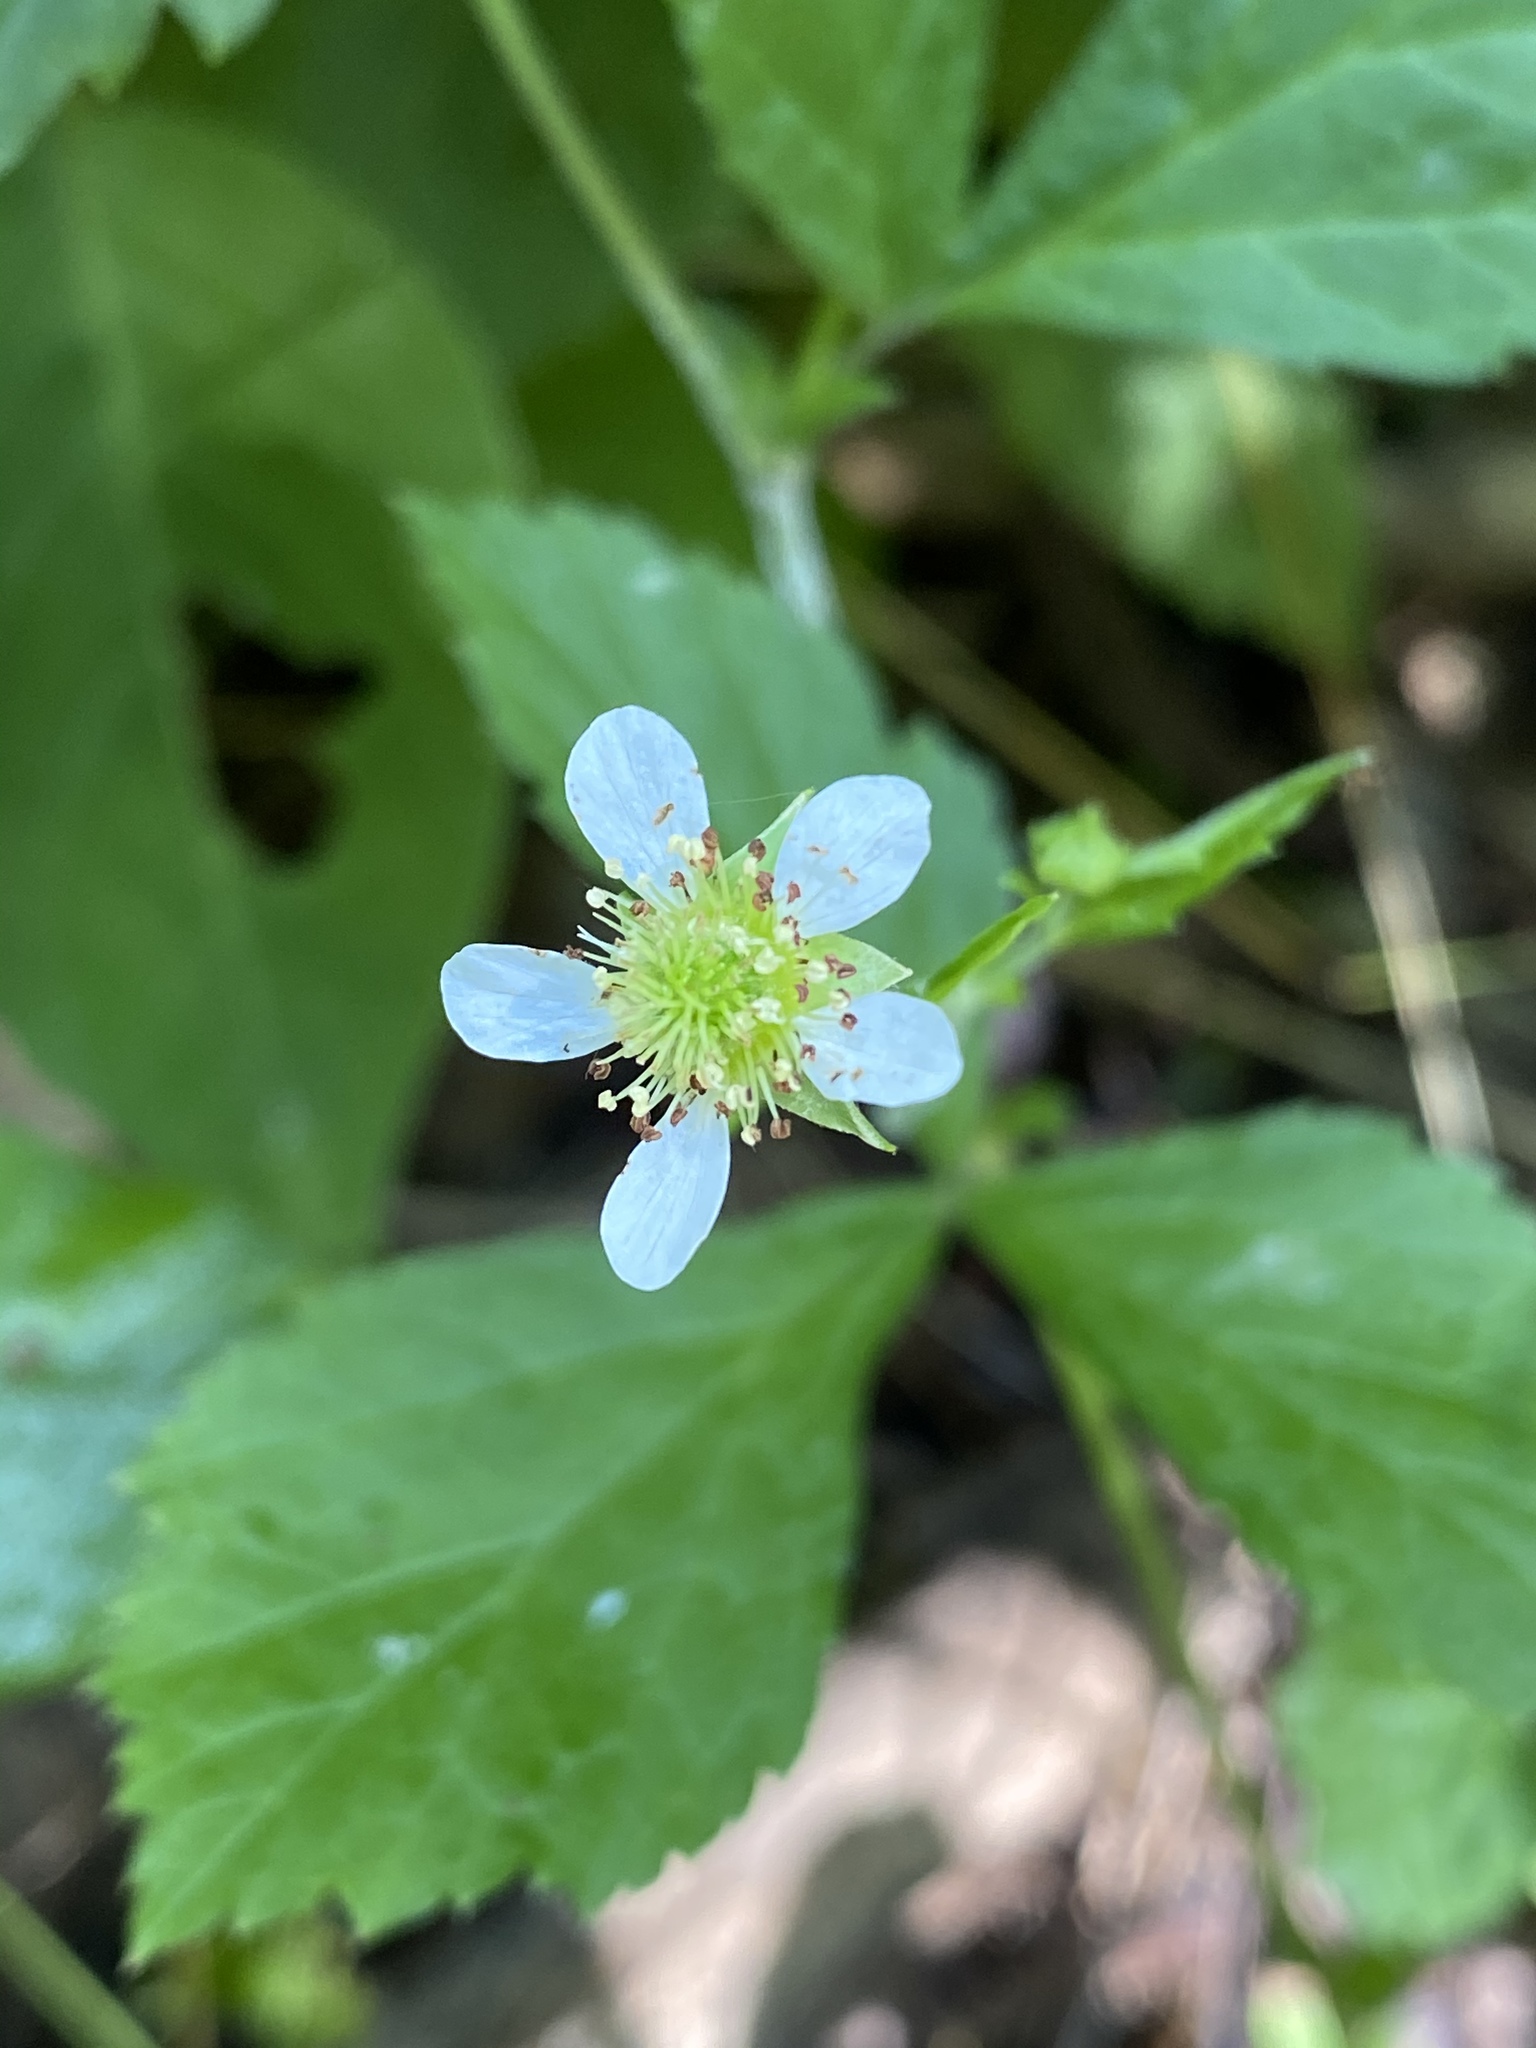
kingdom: Plantae
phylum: Tracheophyta
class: Magnoliopsida
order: Rosales
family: Rosaceae
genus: Geum
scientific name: Geum canadense
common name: White avens
